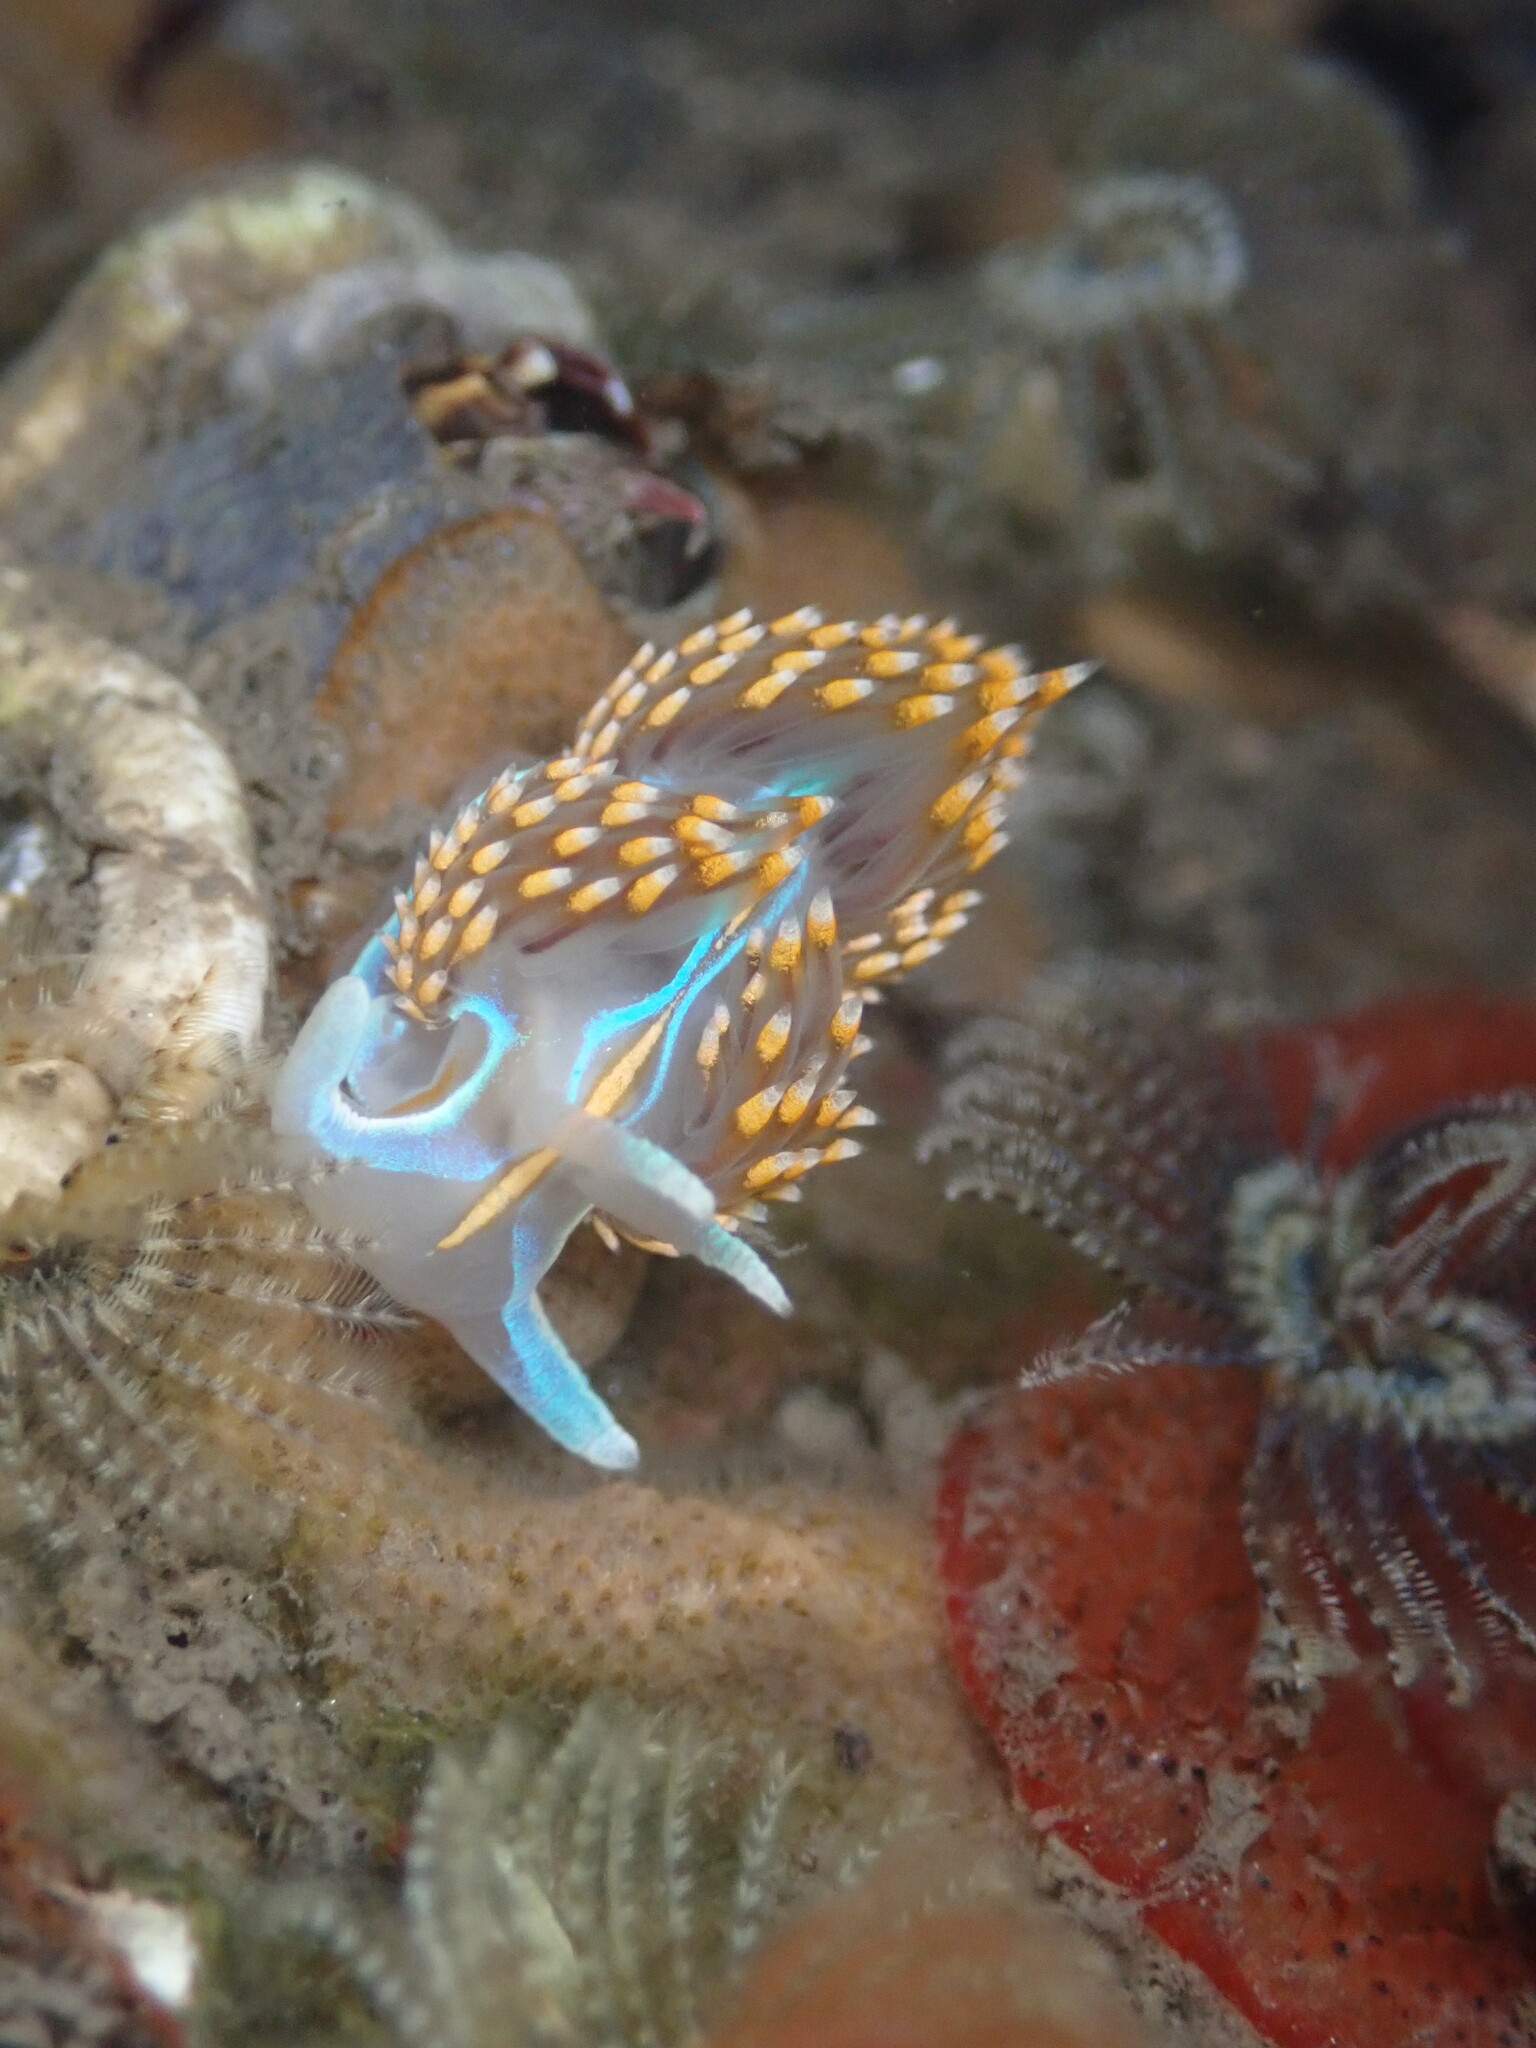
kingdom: Animalia
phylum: Mollusca
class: Gastropoda
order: Nudibranchia
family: Myrrhinidae
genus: Hermissenda
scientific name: Hermissenda opalescens
